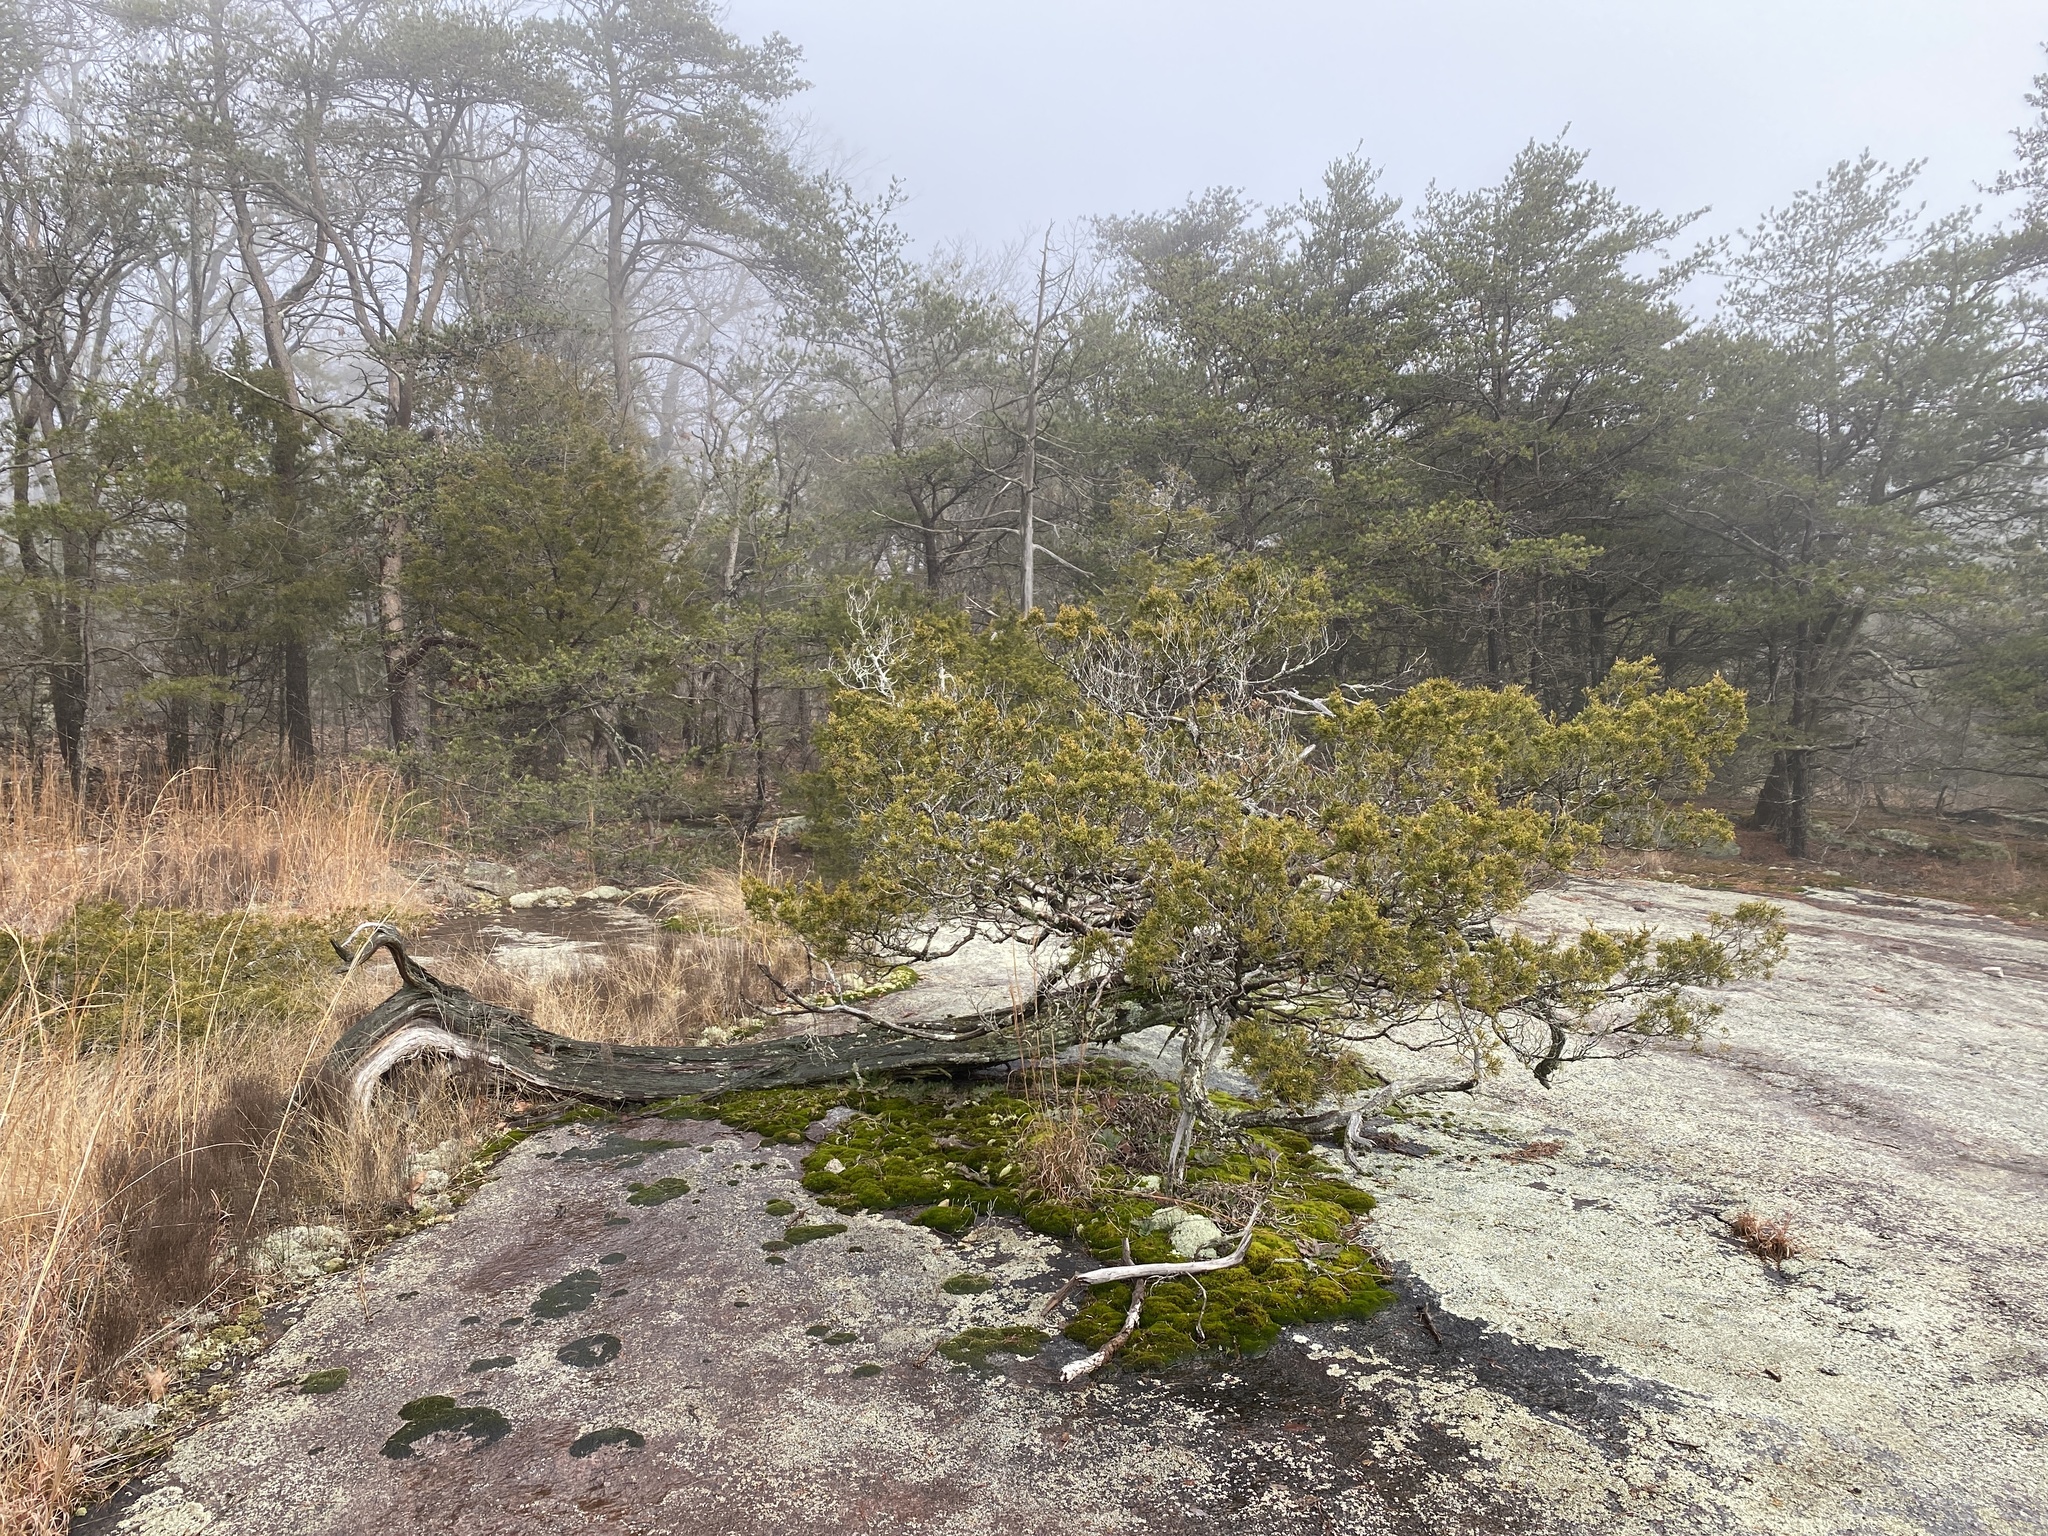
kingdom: Plantae
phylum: Tracheophyta
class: Pinopsida
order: Pinales
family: Cupressaceae
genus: Juniperus
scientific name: Juniperus virginiana
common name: Red juniper
